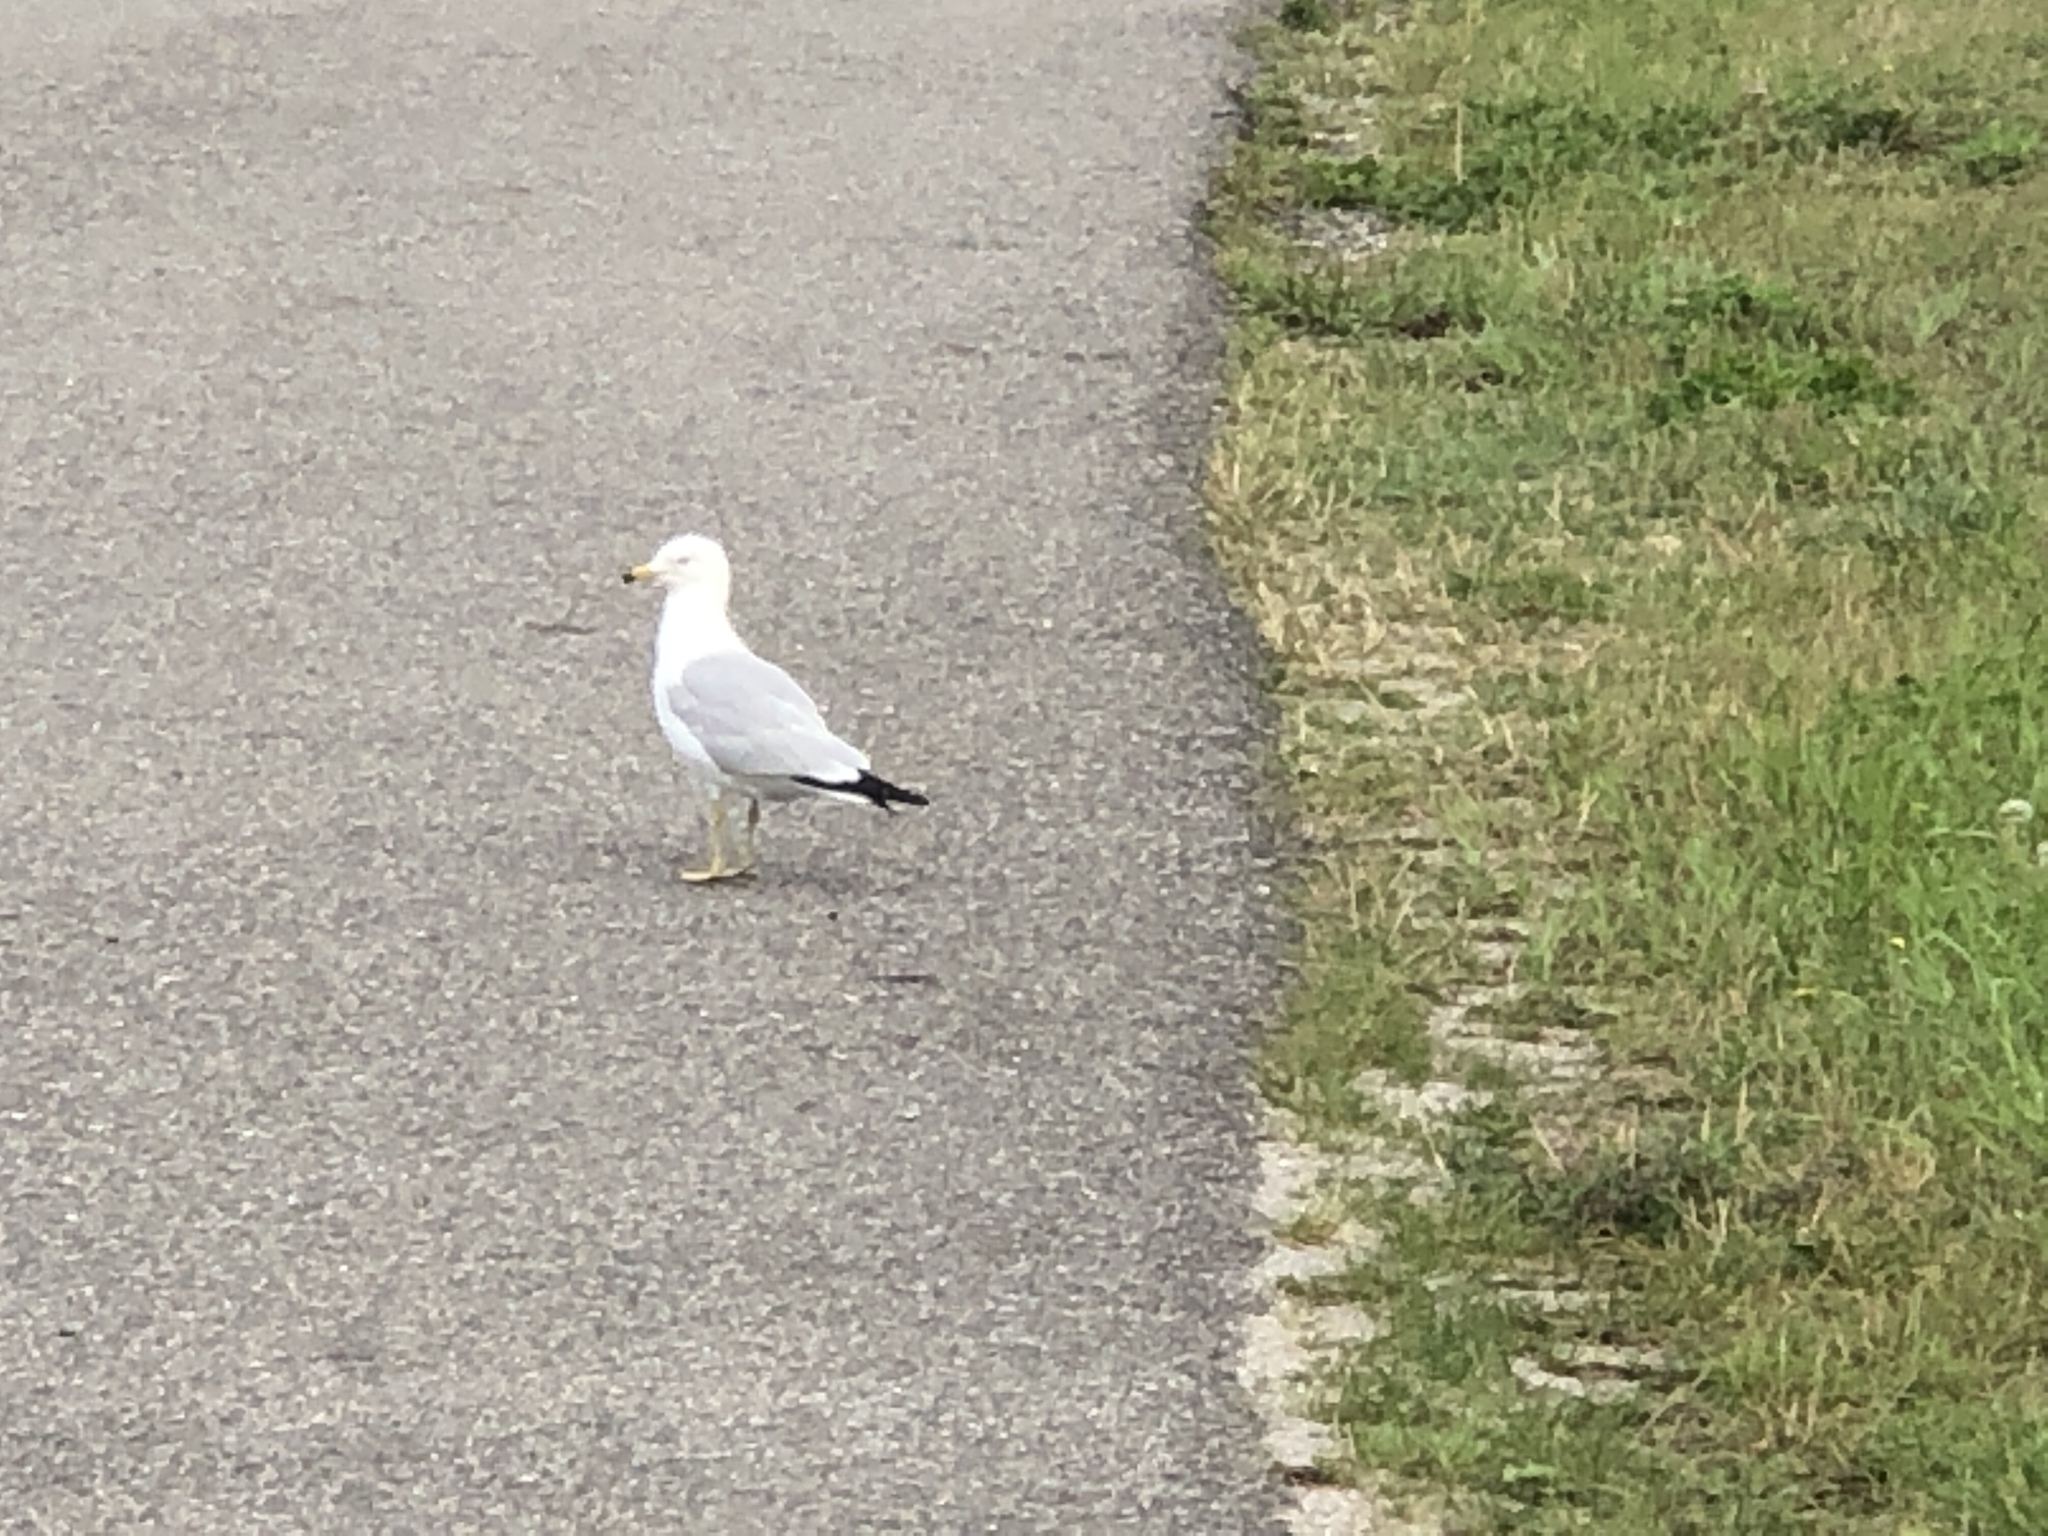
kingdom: Animalia
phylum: Chordata
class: Aves
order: Charadriiformes
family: Laridae
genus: Larus
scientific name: Larus delawarensis
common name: Ring-billed gull
